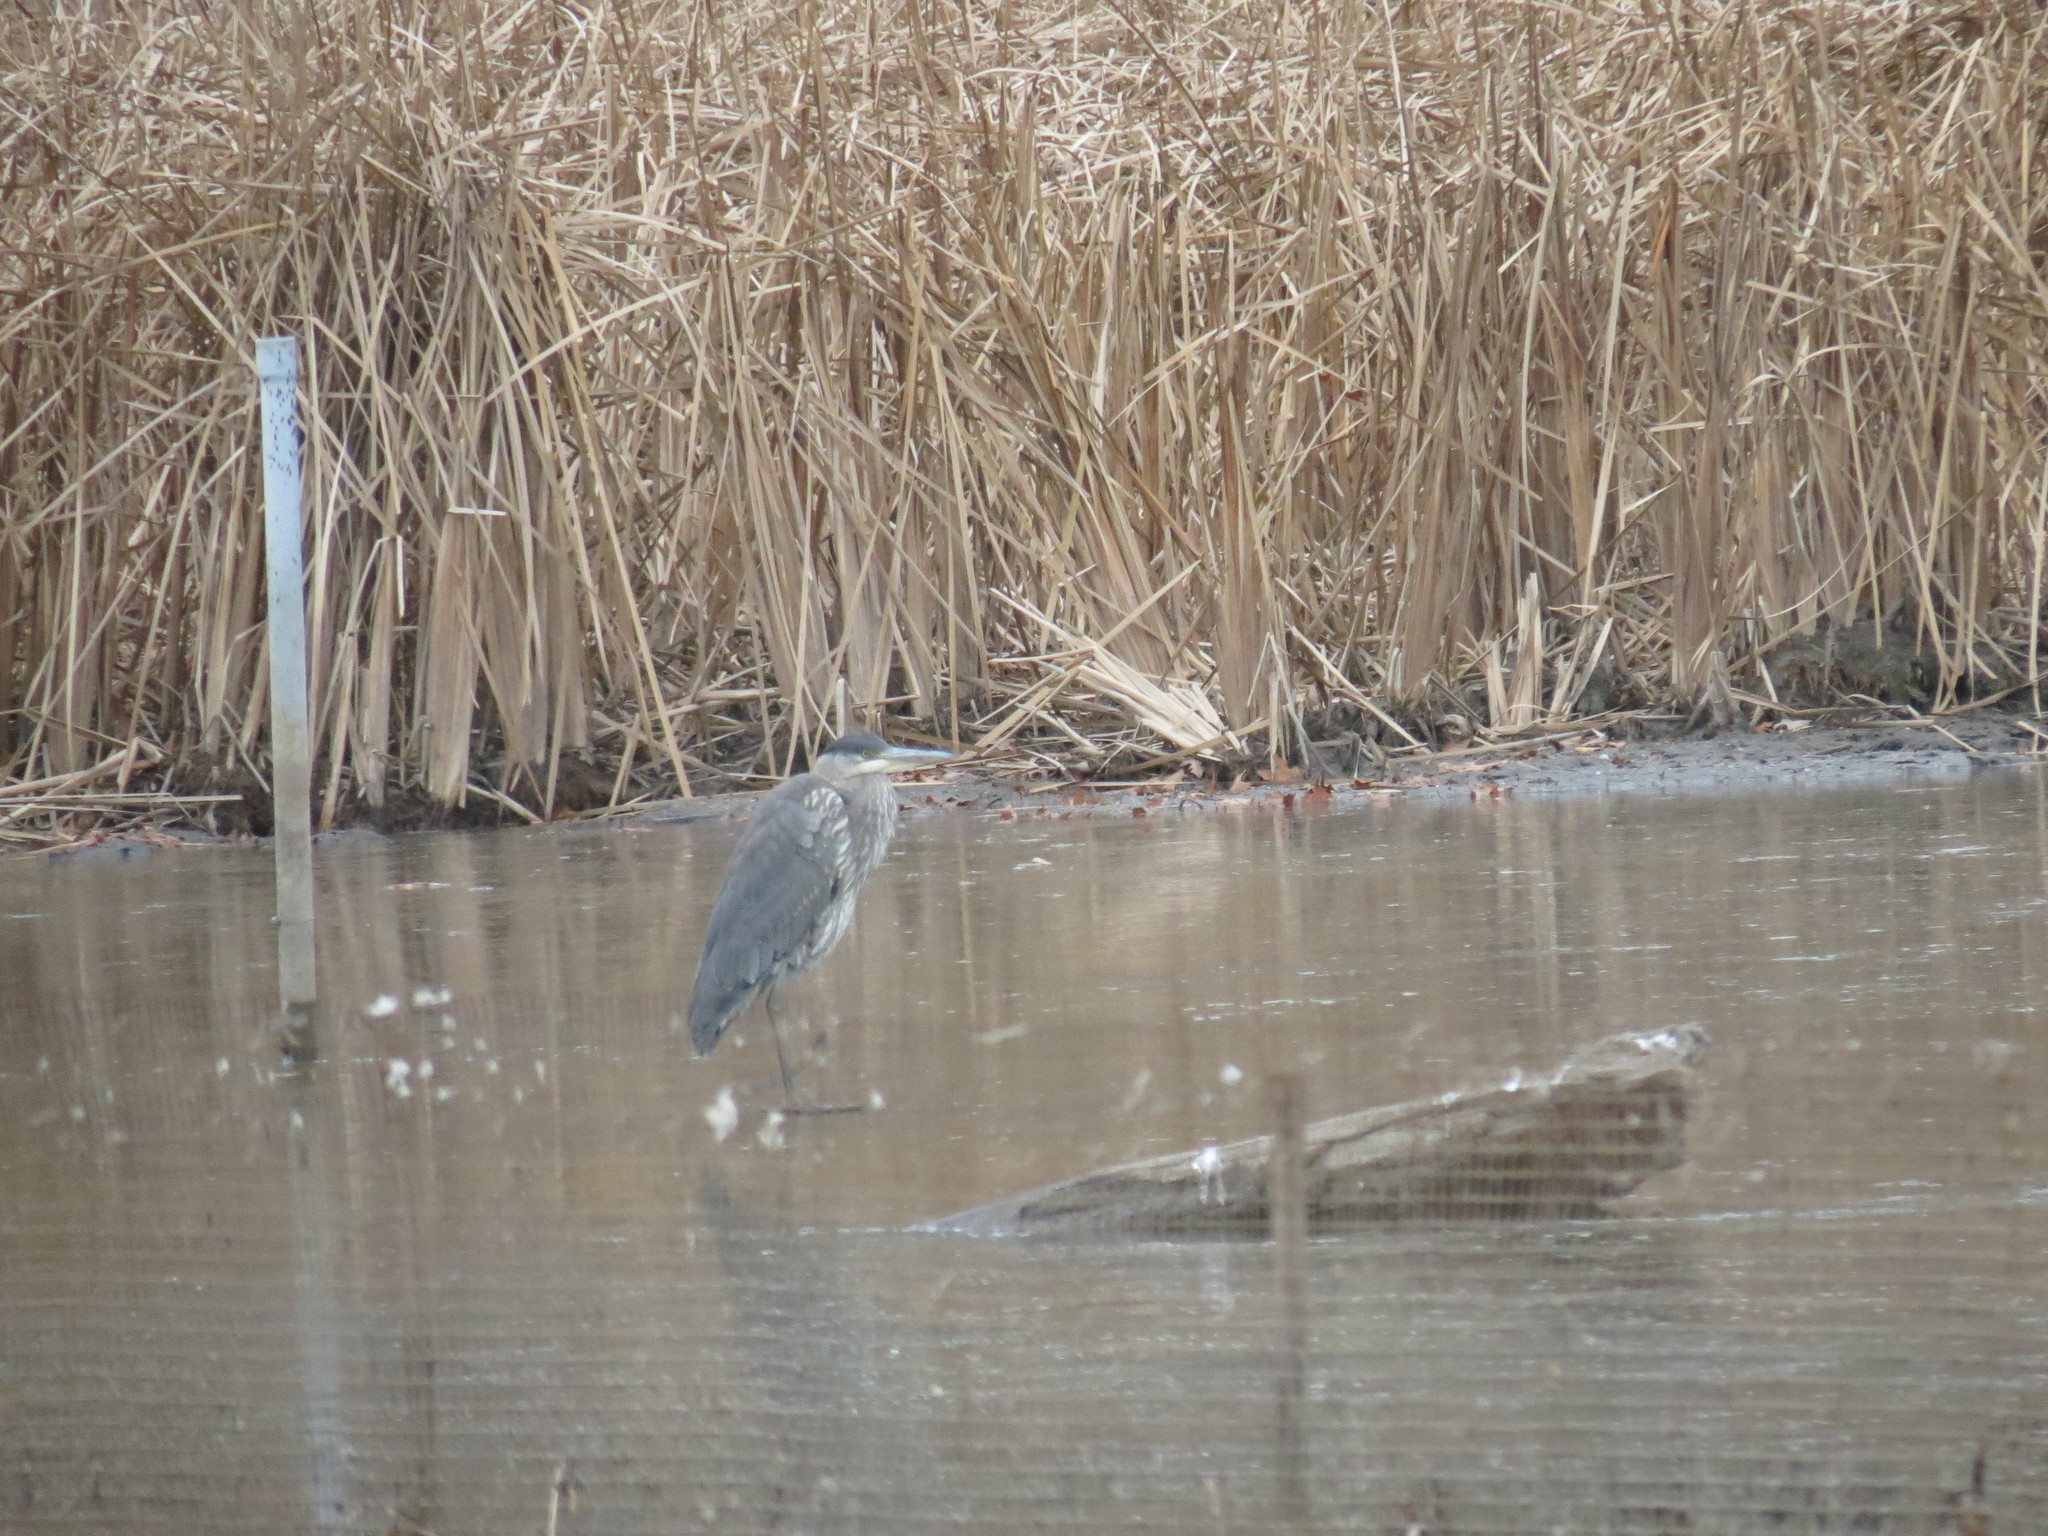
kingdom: Animalia
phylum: Chordata
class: Aves
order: Pelecaniformes
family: Ardeidae
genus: Ardea
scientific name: Ardea herodias
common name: Great blue heron
